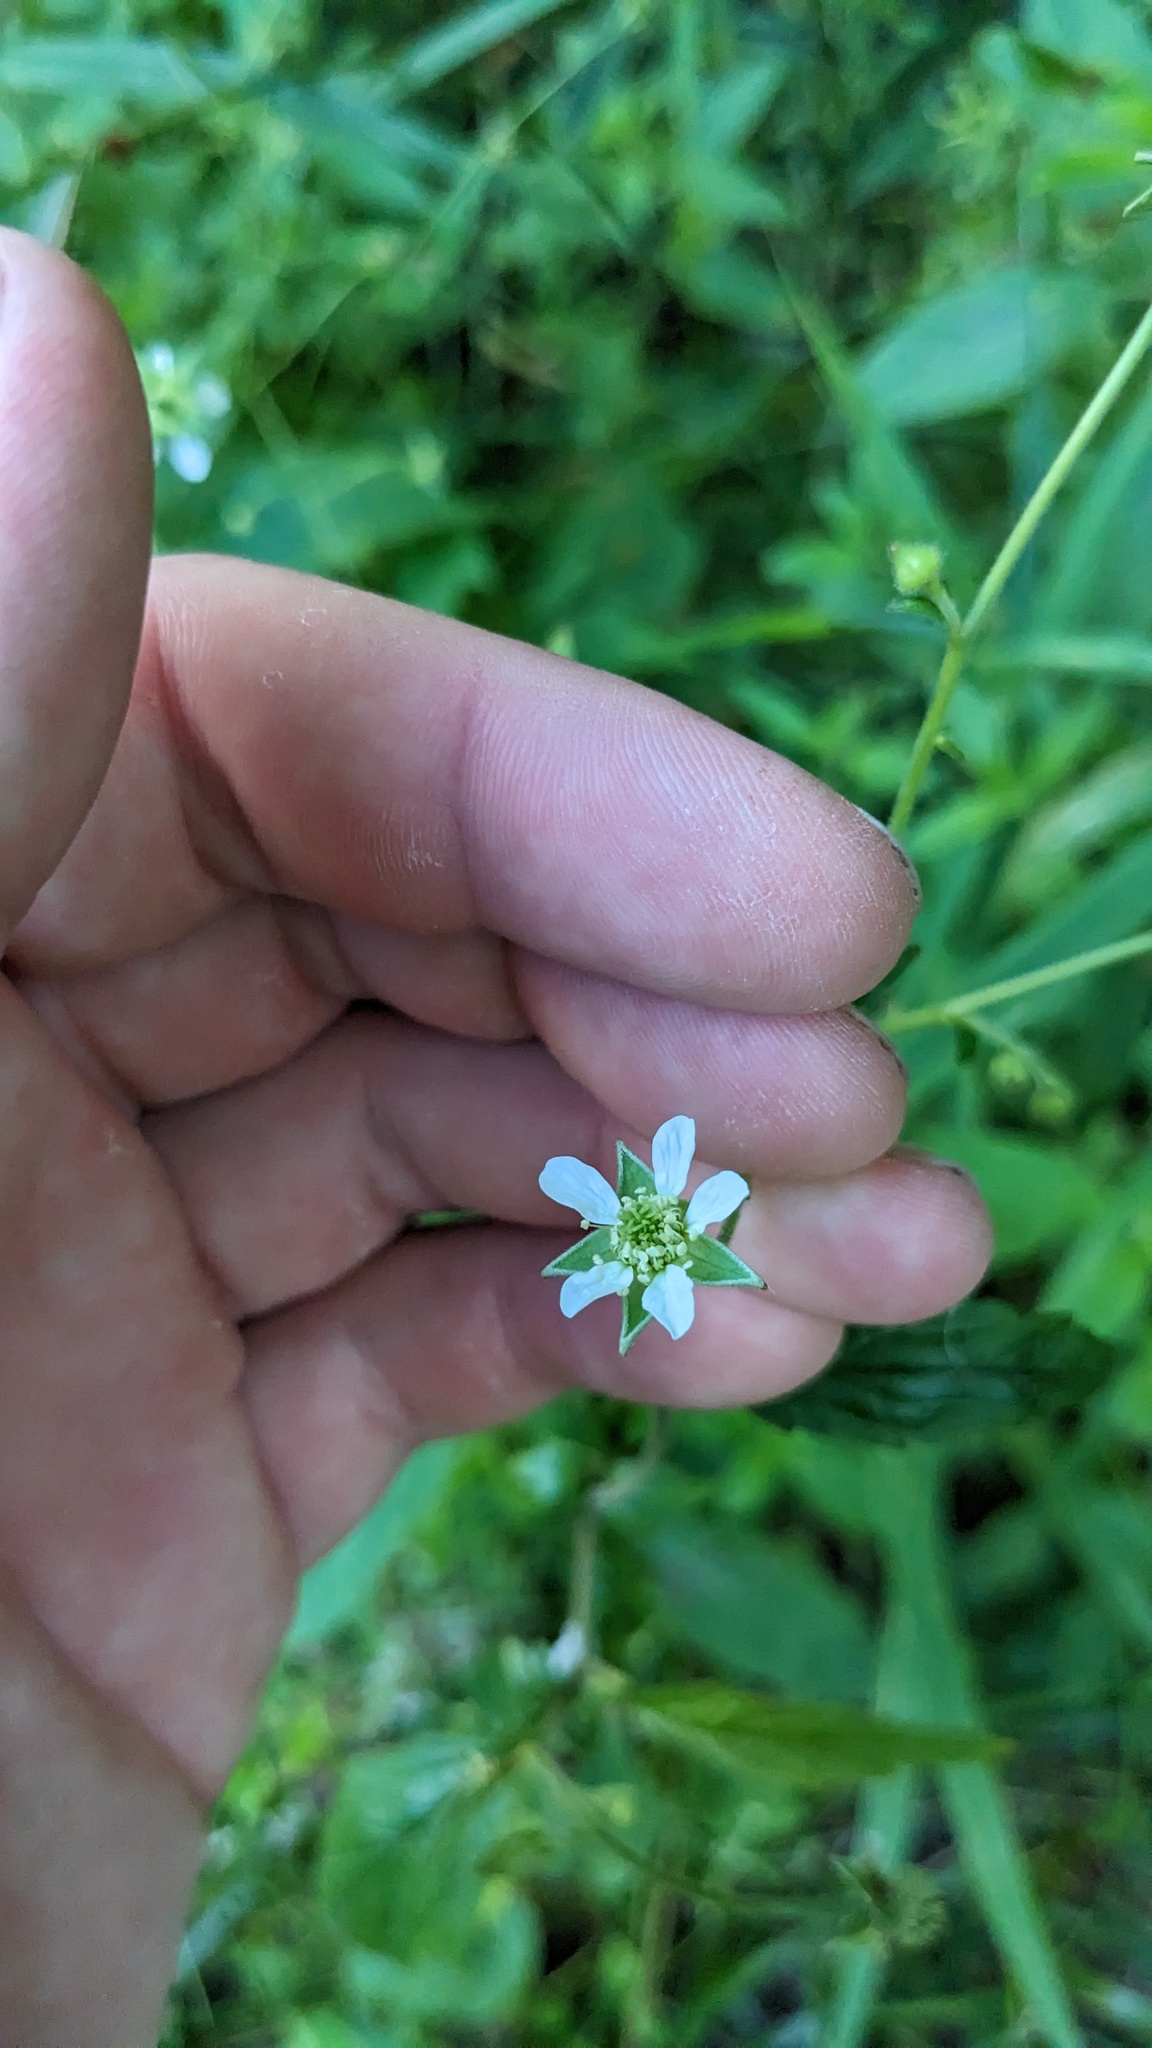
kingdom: Plantae
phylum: Tracheophyta
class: Magnoliopsida
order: Rosales
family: Rosaceae
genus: Geum
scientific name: Geum canadense
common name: White avens
